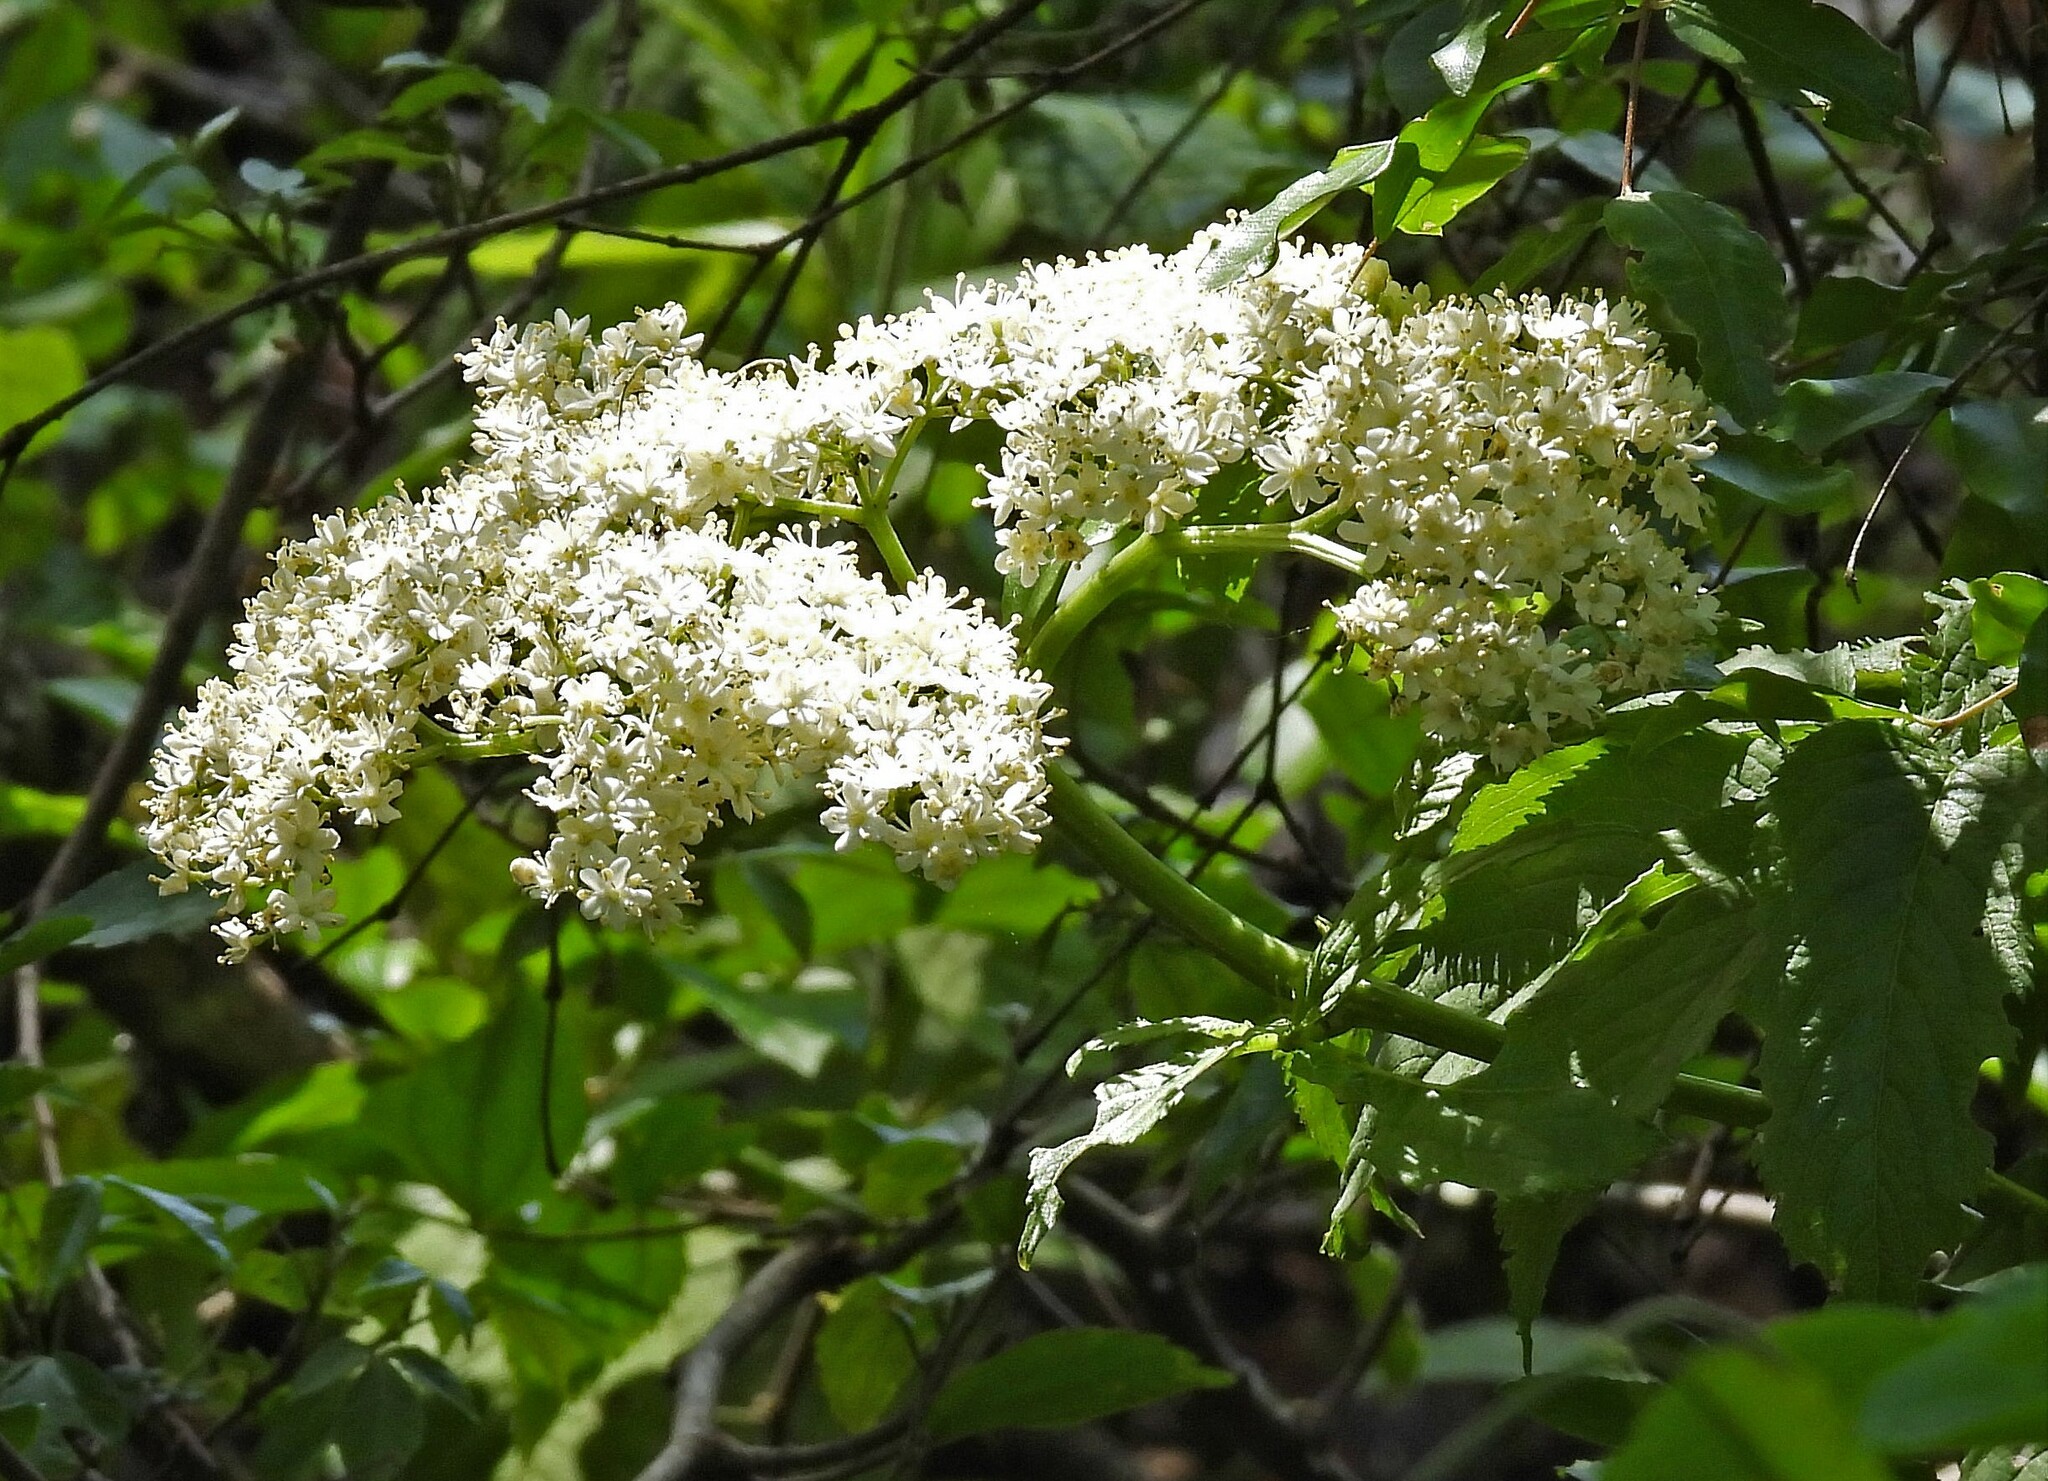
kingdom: Plantae
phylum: Tracheophyta
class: Magnoliopsida
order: Dipsacales
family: Viburnaceae
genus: Sambucus
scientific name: Sambucus peruviana
